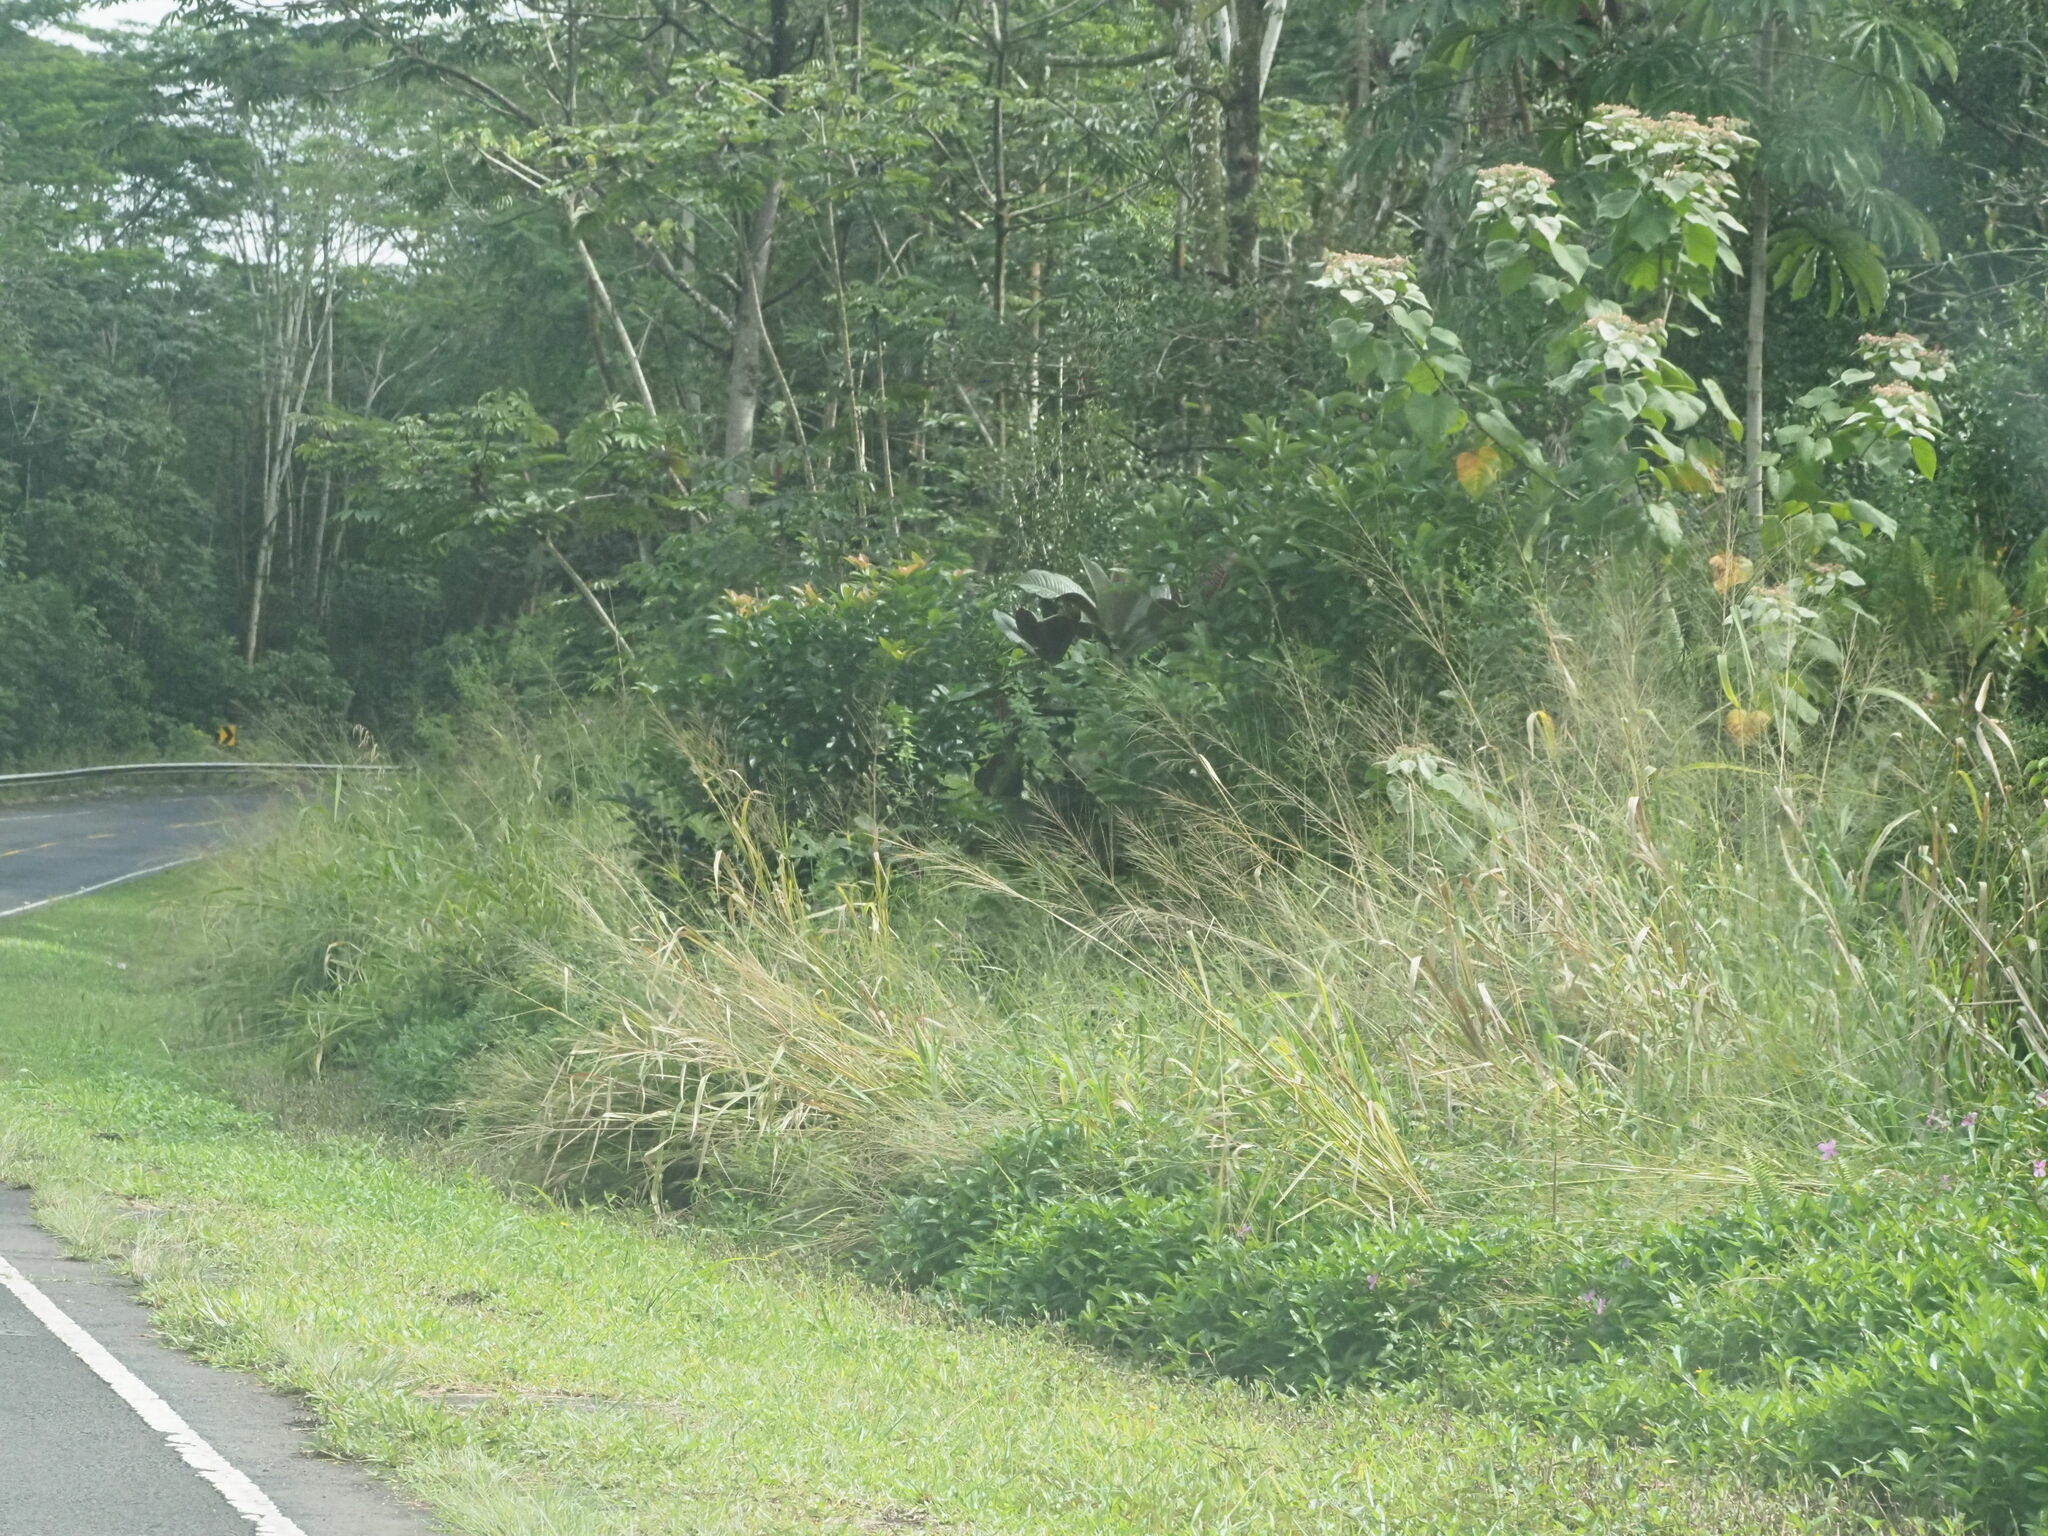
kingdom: Plantae
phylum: Tracheophyta
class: Liliopsida
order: Poales
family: Poaceae
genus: Megathyrsus
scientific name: Megathyrsus maximus
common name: Guineagrass
